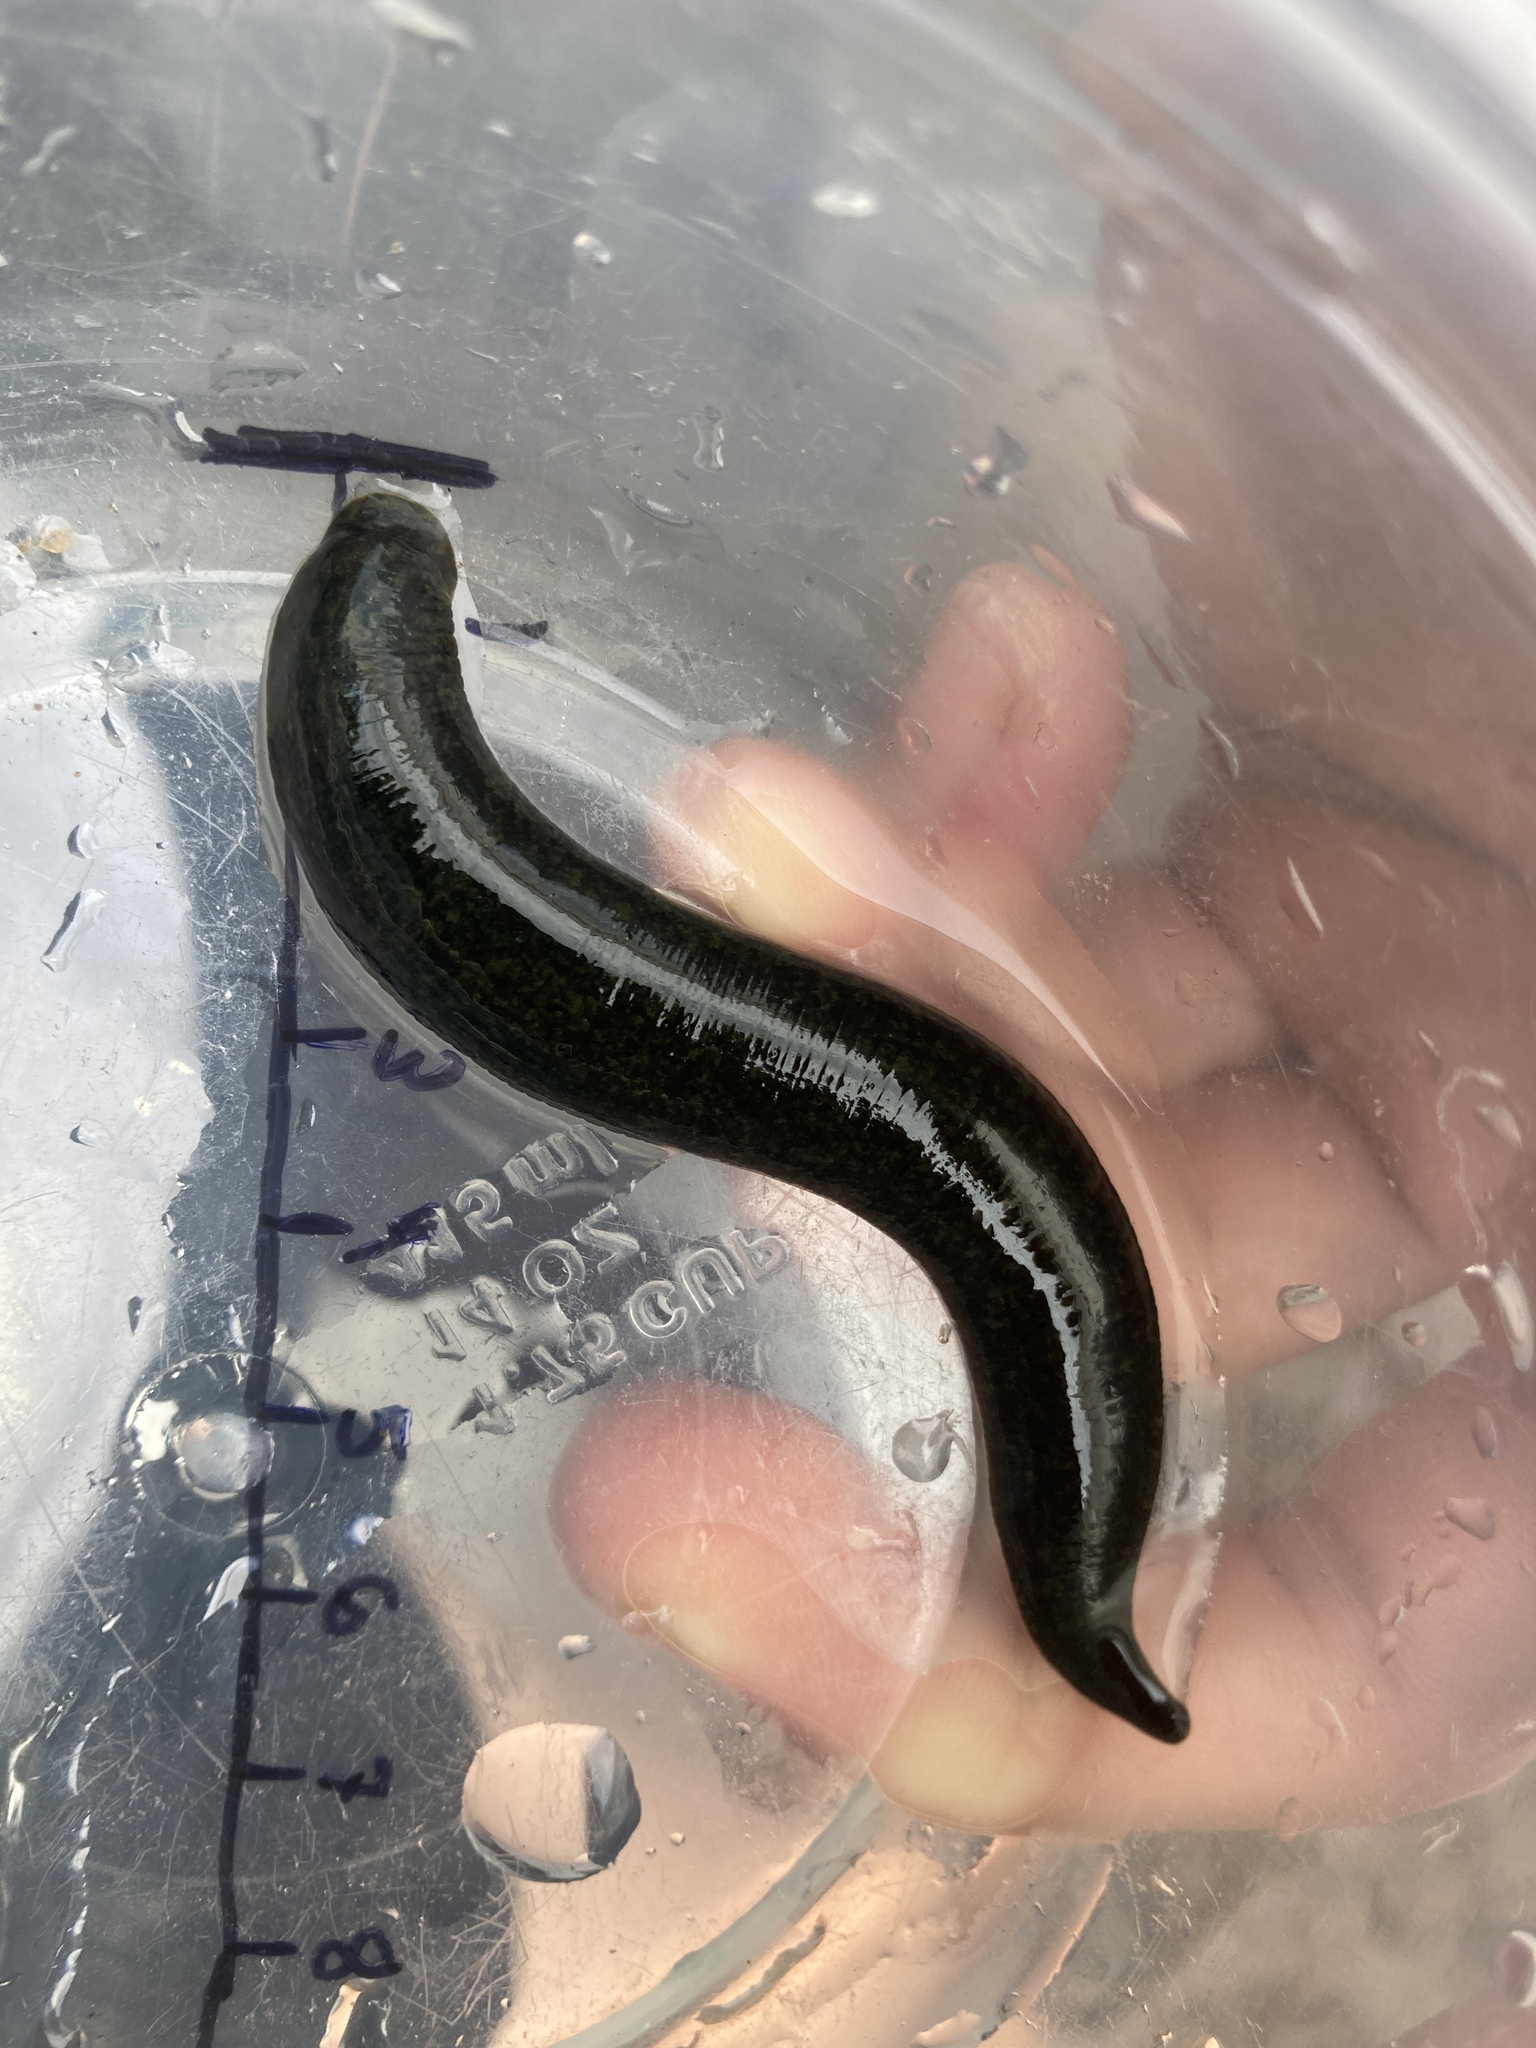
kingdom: Animalia
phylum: Annelida
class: Clitellata
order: Arhynchobdellida
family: Haemopidae
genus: Haemopis
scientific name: Haemopis marmorata
